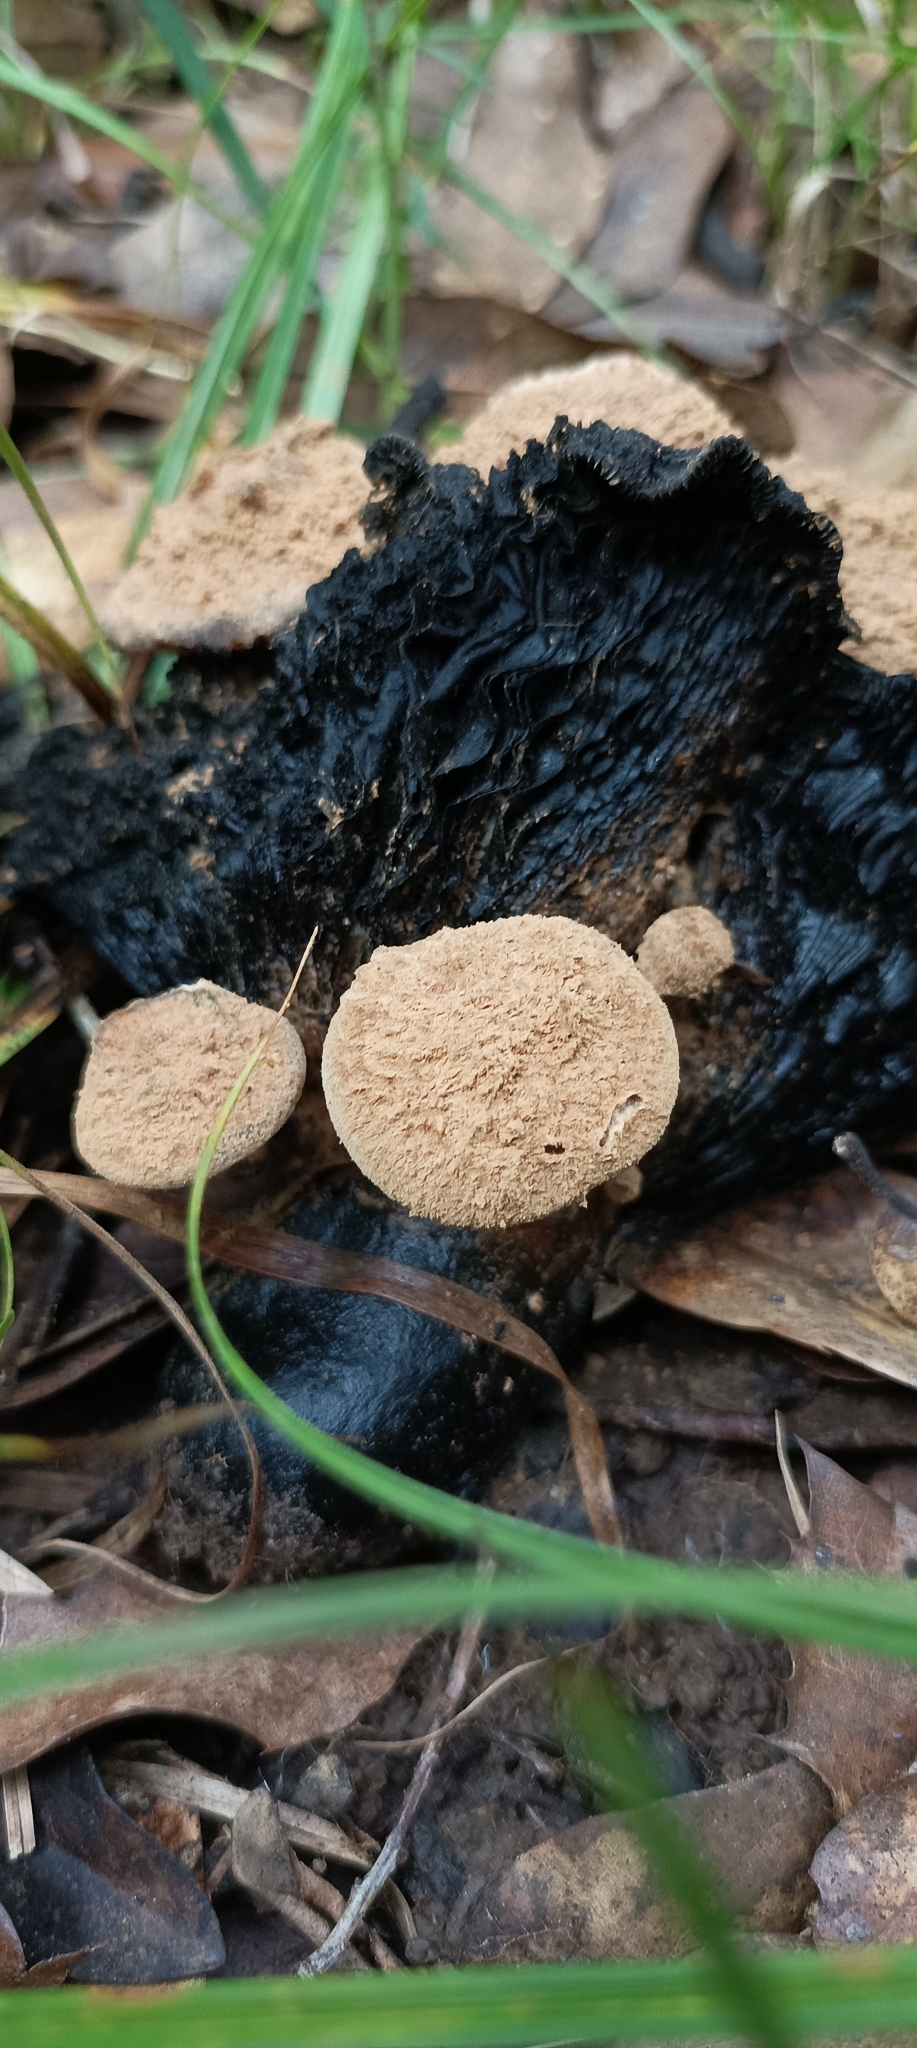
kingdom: Fungi
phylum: Basidiomycota
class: Agaricomycetes
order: Agaricales
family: Lyophyllaceae
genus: Asterophora
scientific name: Asterophora lycoperdoides
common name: Pick-a-back toadstool
